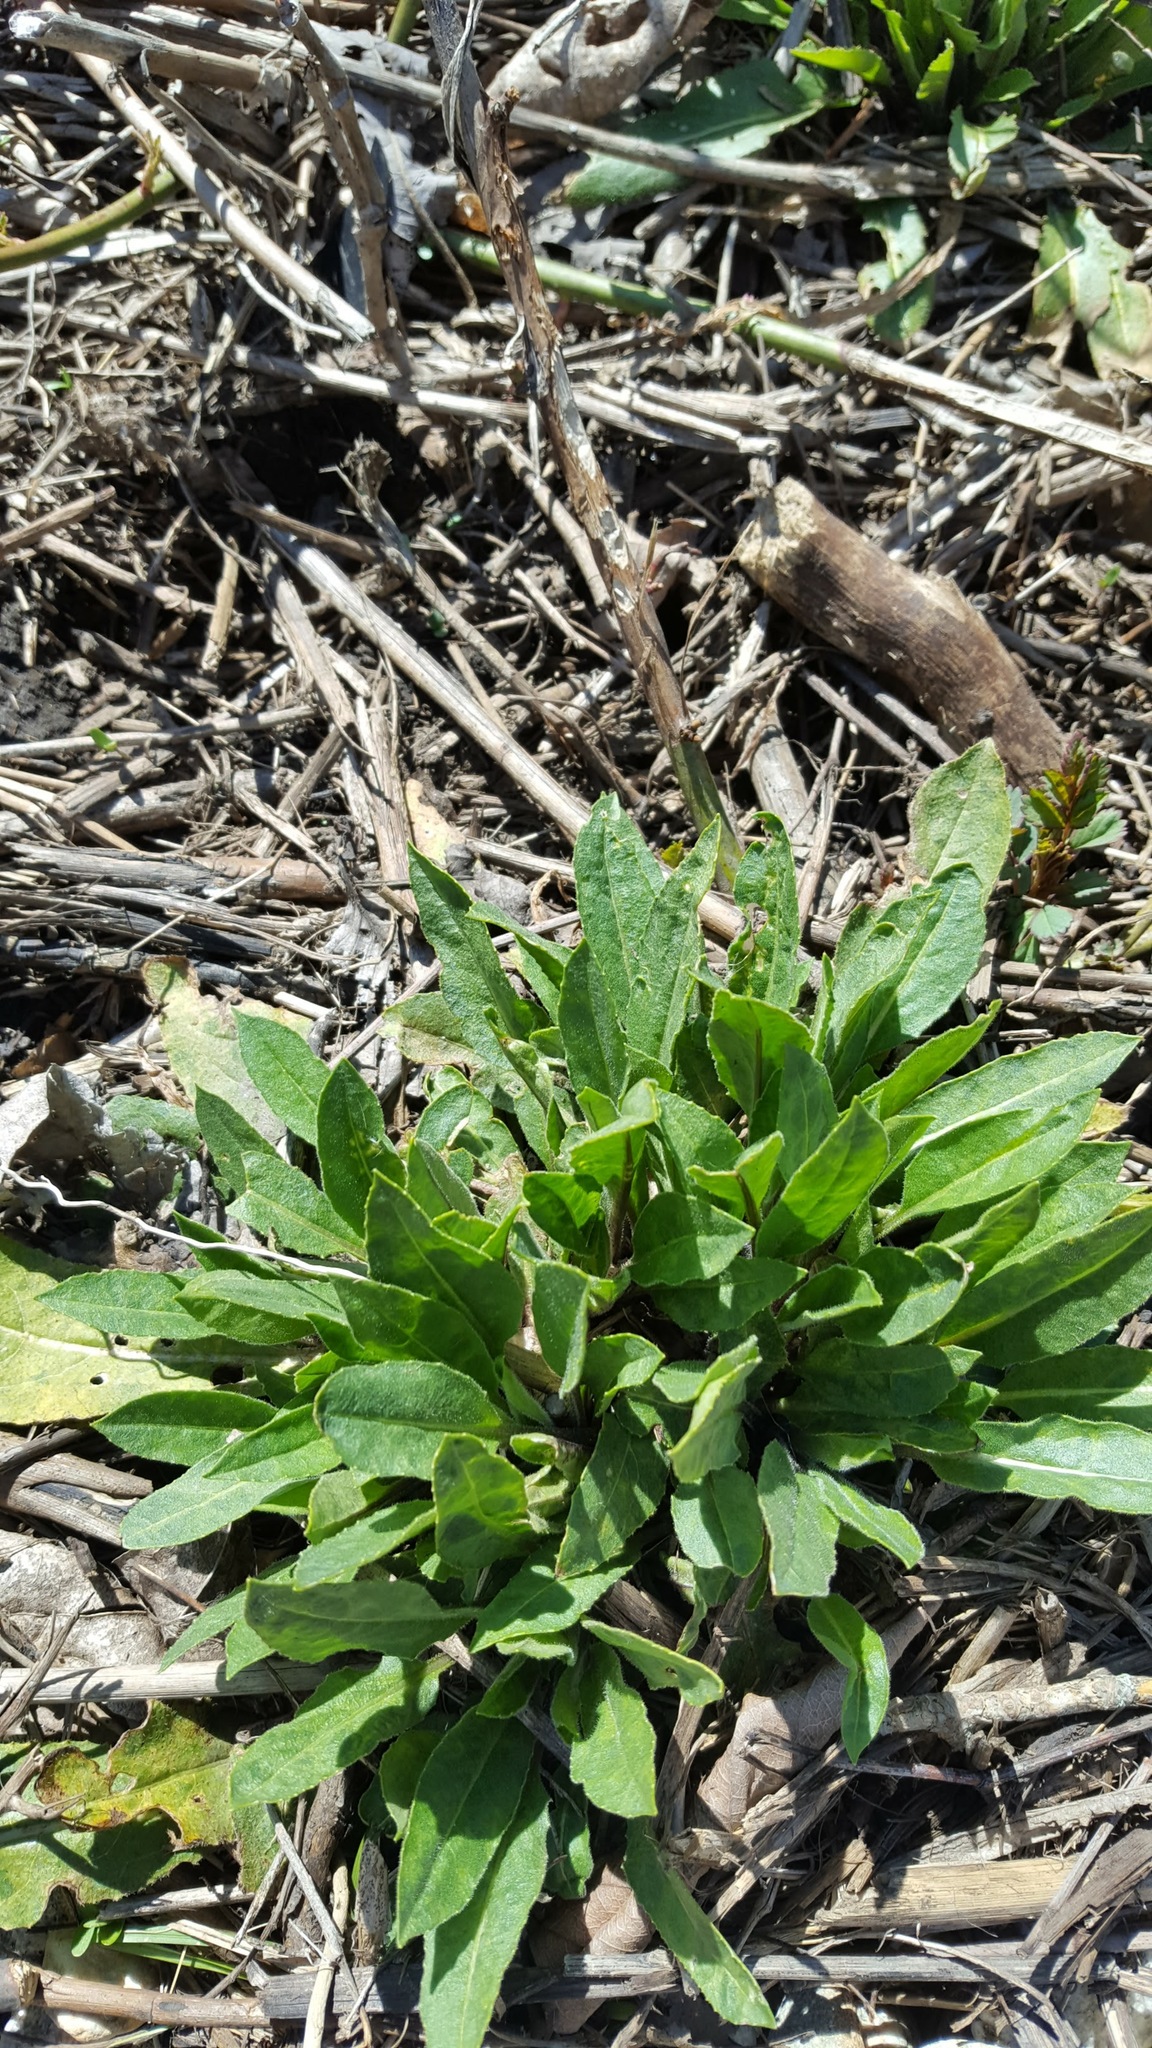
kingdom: Plantae
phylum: Tracheophyta
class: Magnoliopsida
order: Brassicales
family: Brassicaceae
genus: Hesperis
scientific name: Hesperis matronalis
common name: Dame's-violet
